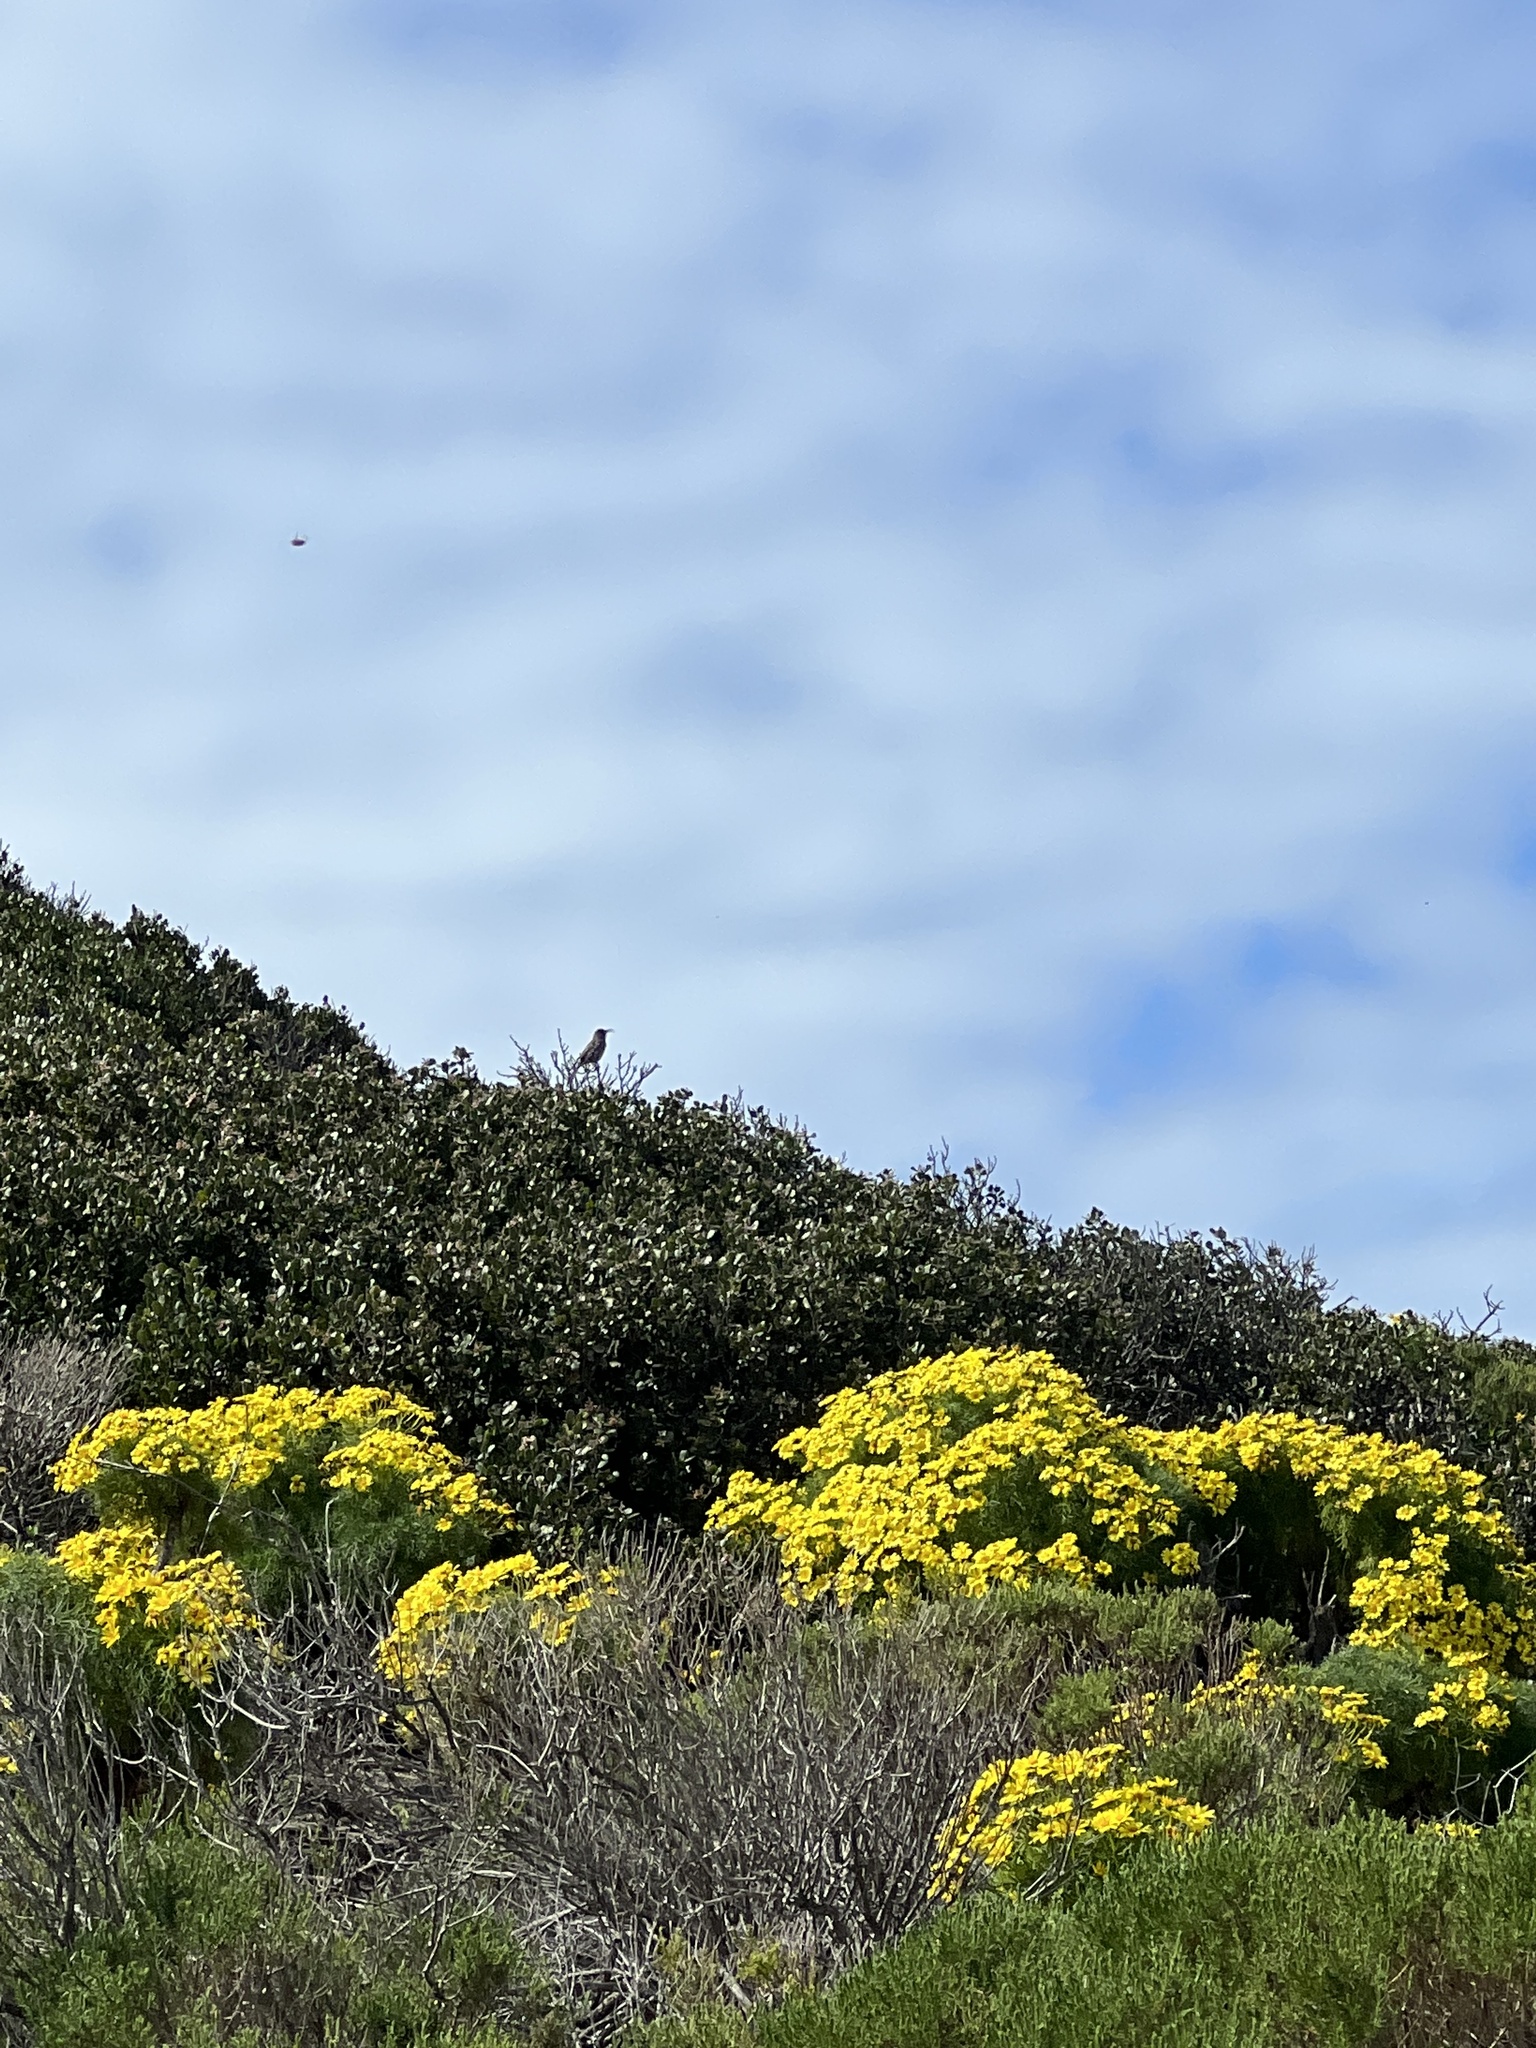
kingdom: Animalia
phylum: Chordata
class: Aves
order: Passeriformes
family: Mimidae
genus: Toxostoma
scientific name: Toxostoma redivivum
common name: California thrasher
